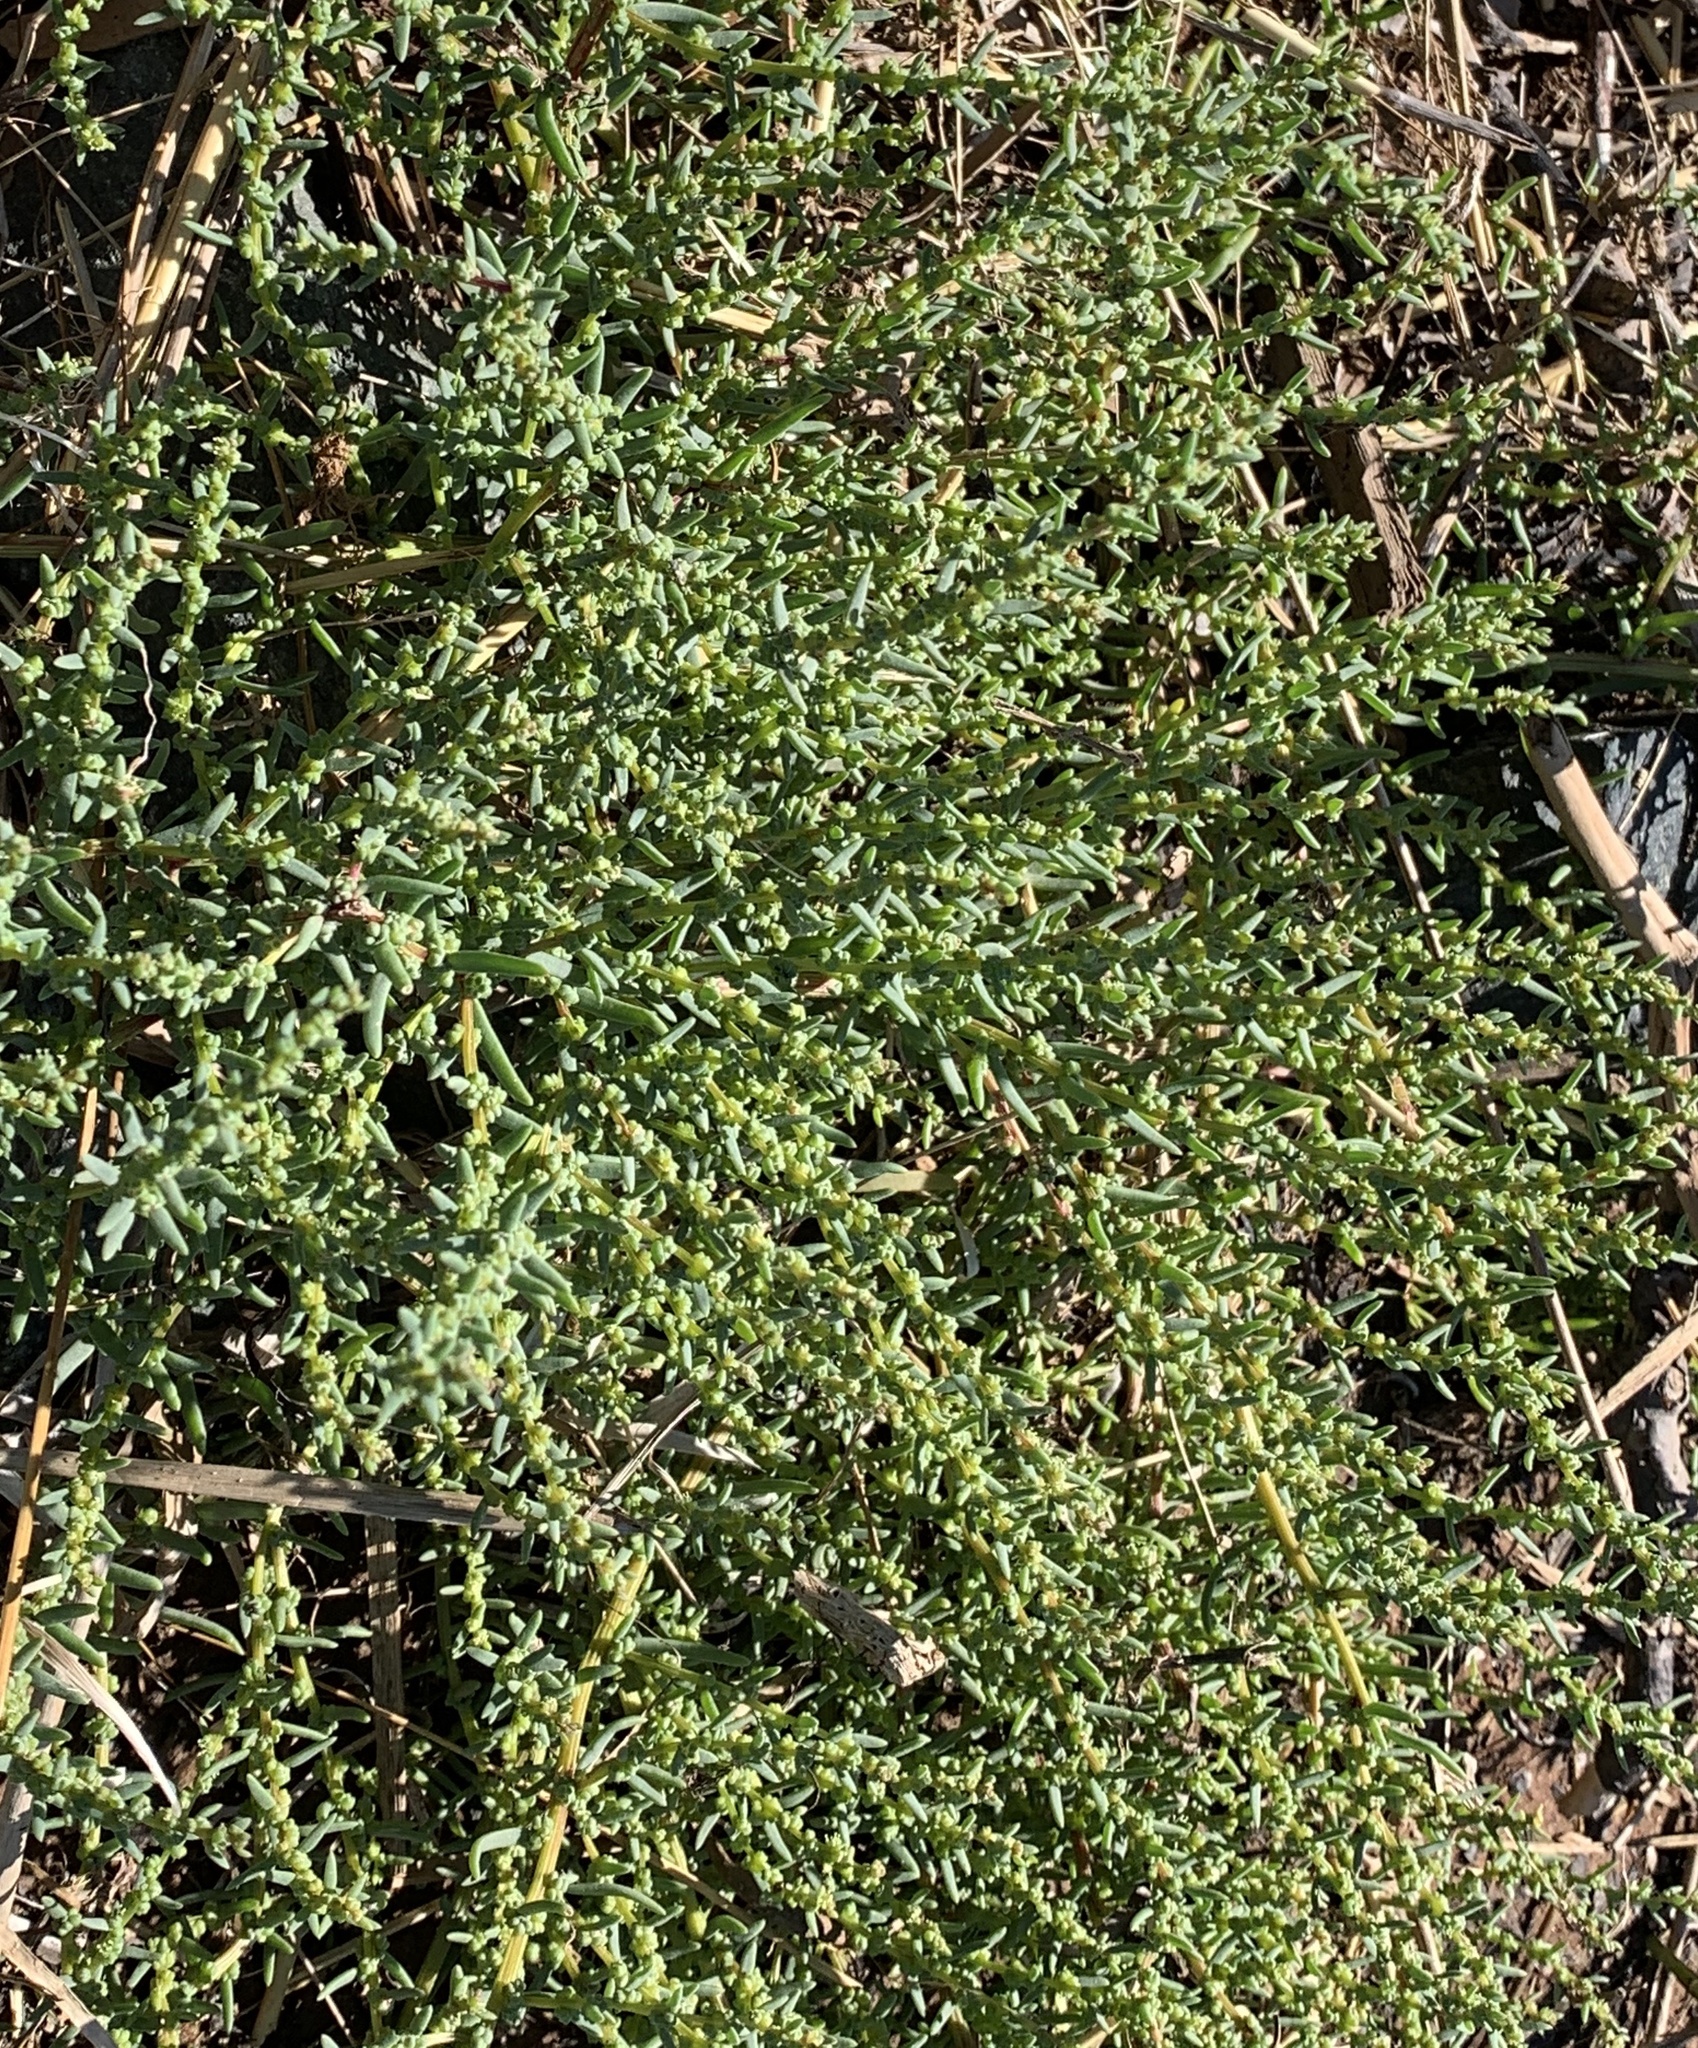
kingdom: Plantae
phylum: Tracheophyta
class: Magnoliopsida
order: Caryophyllales
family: Amaranthaceae
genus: Suaeda
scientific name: Suaeda maritima
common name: Annual sea-blite
